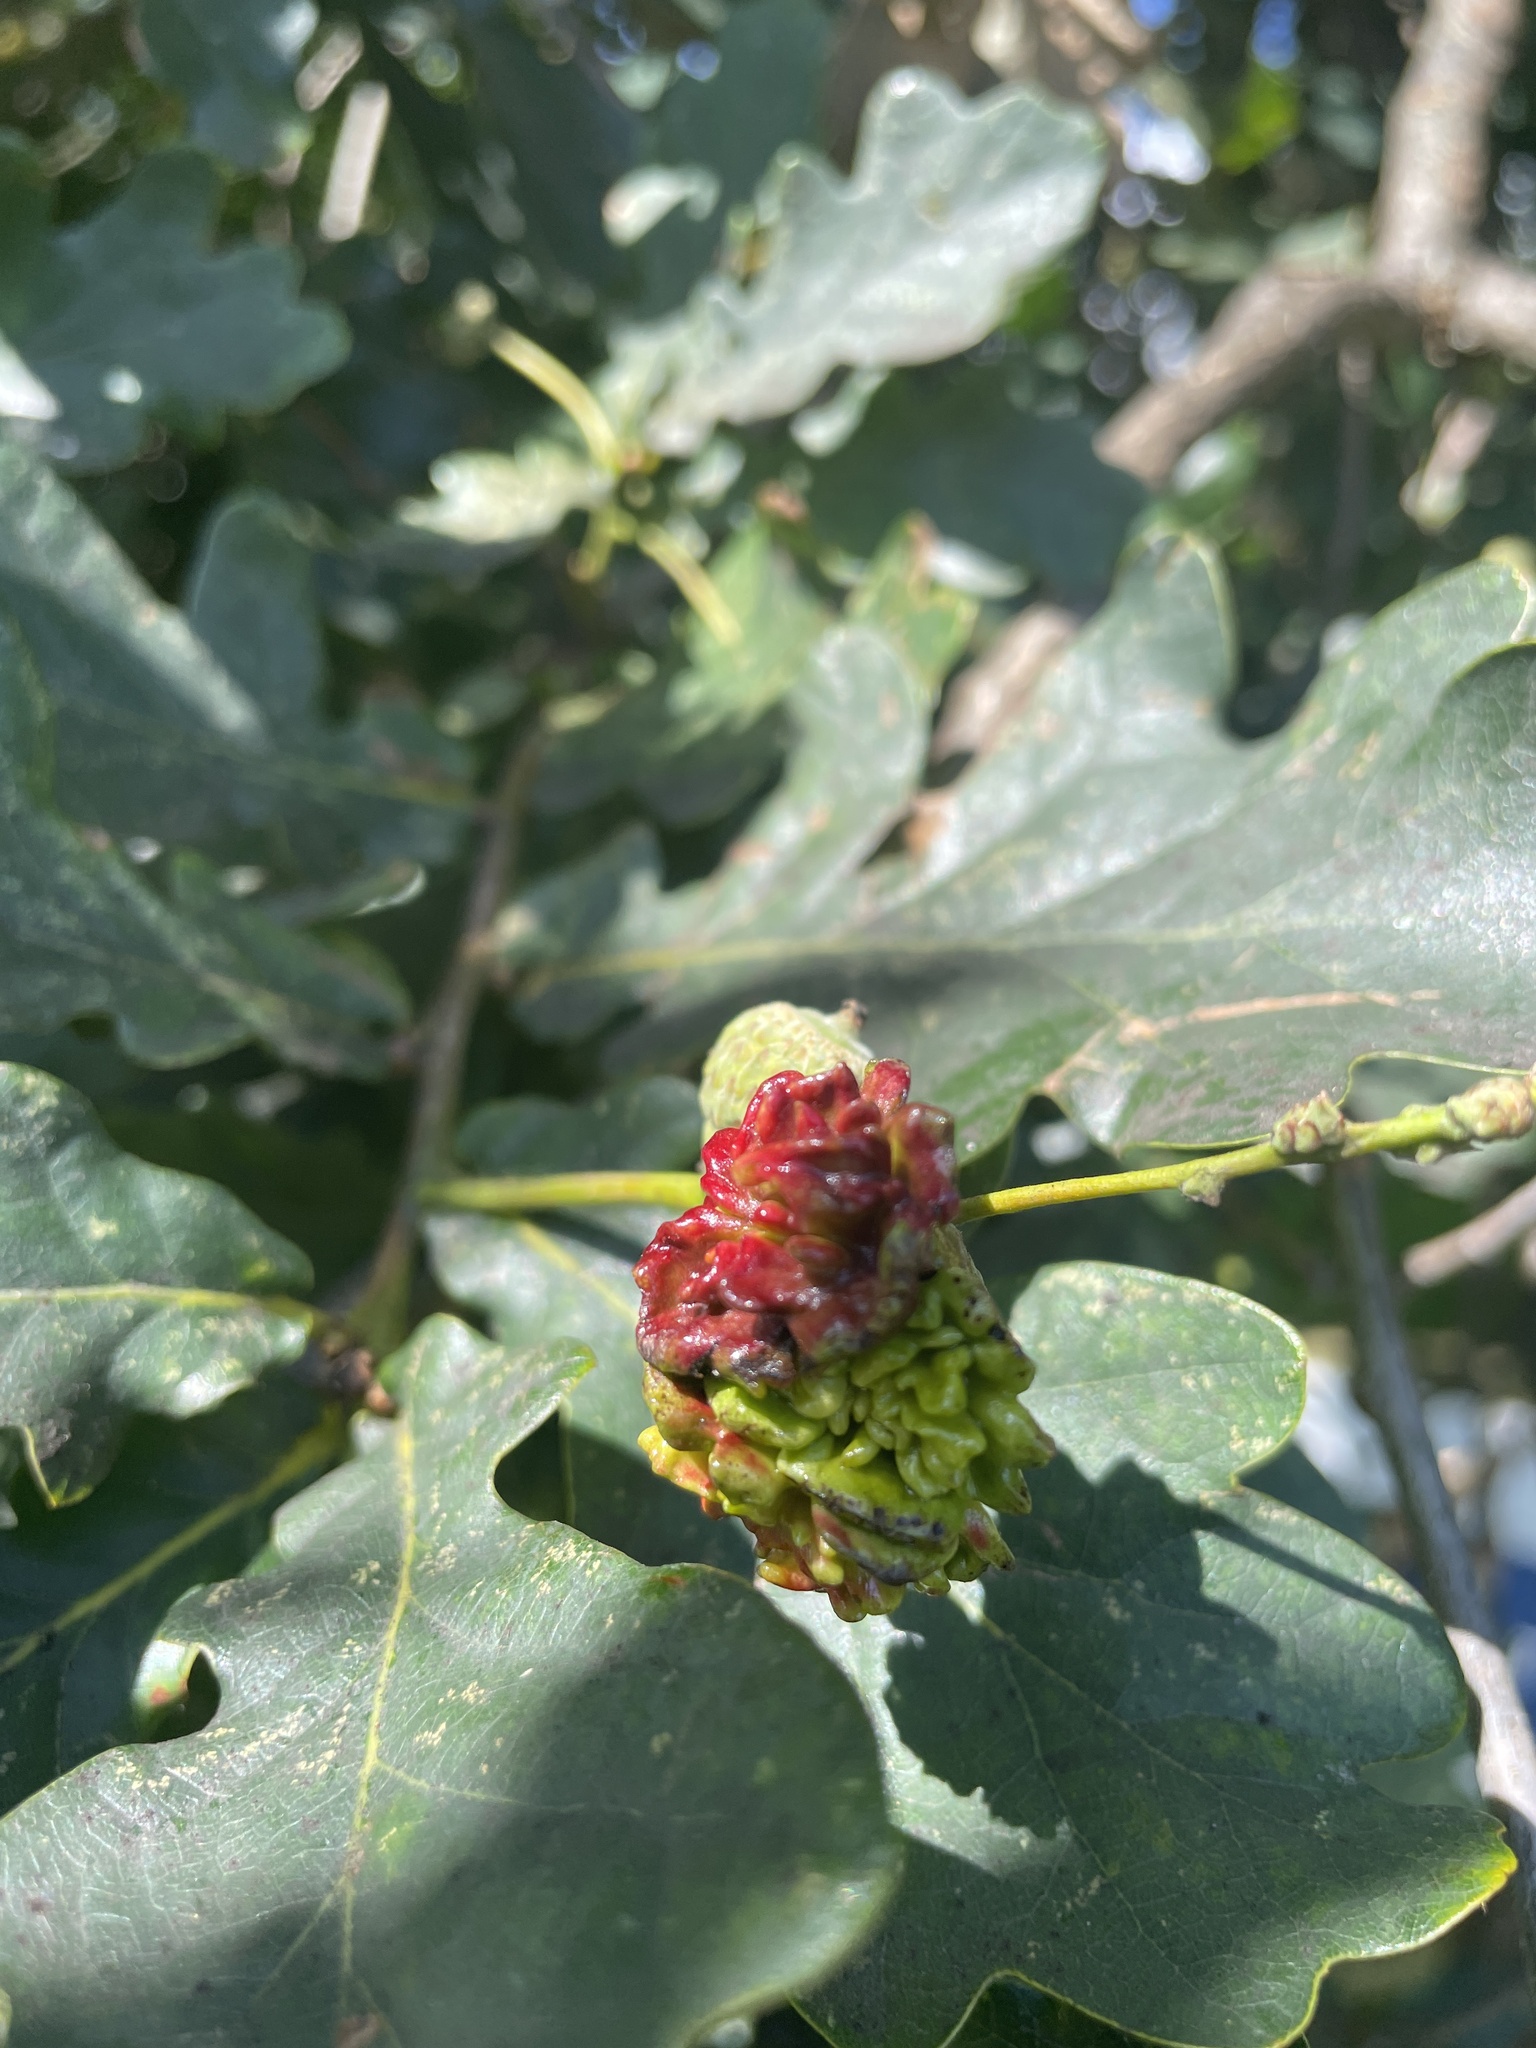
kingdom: Animalia
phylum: Arthropoda
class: Insecta
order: Hymenoptera
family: Cynipidae
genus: Andricus
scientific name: Andricus quercuscalicis
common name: Knopper gall
